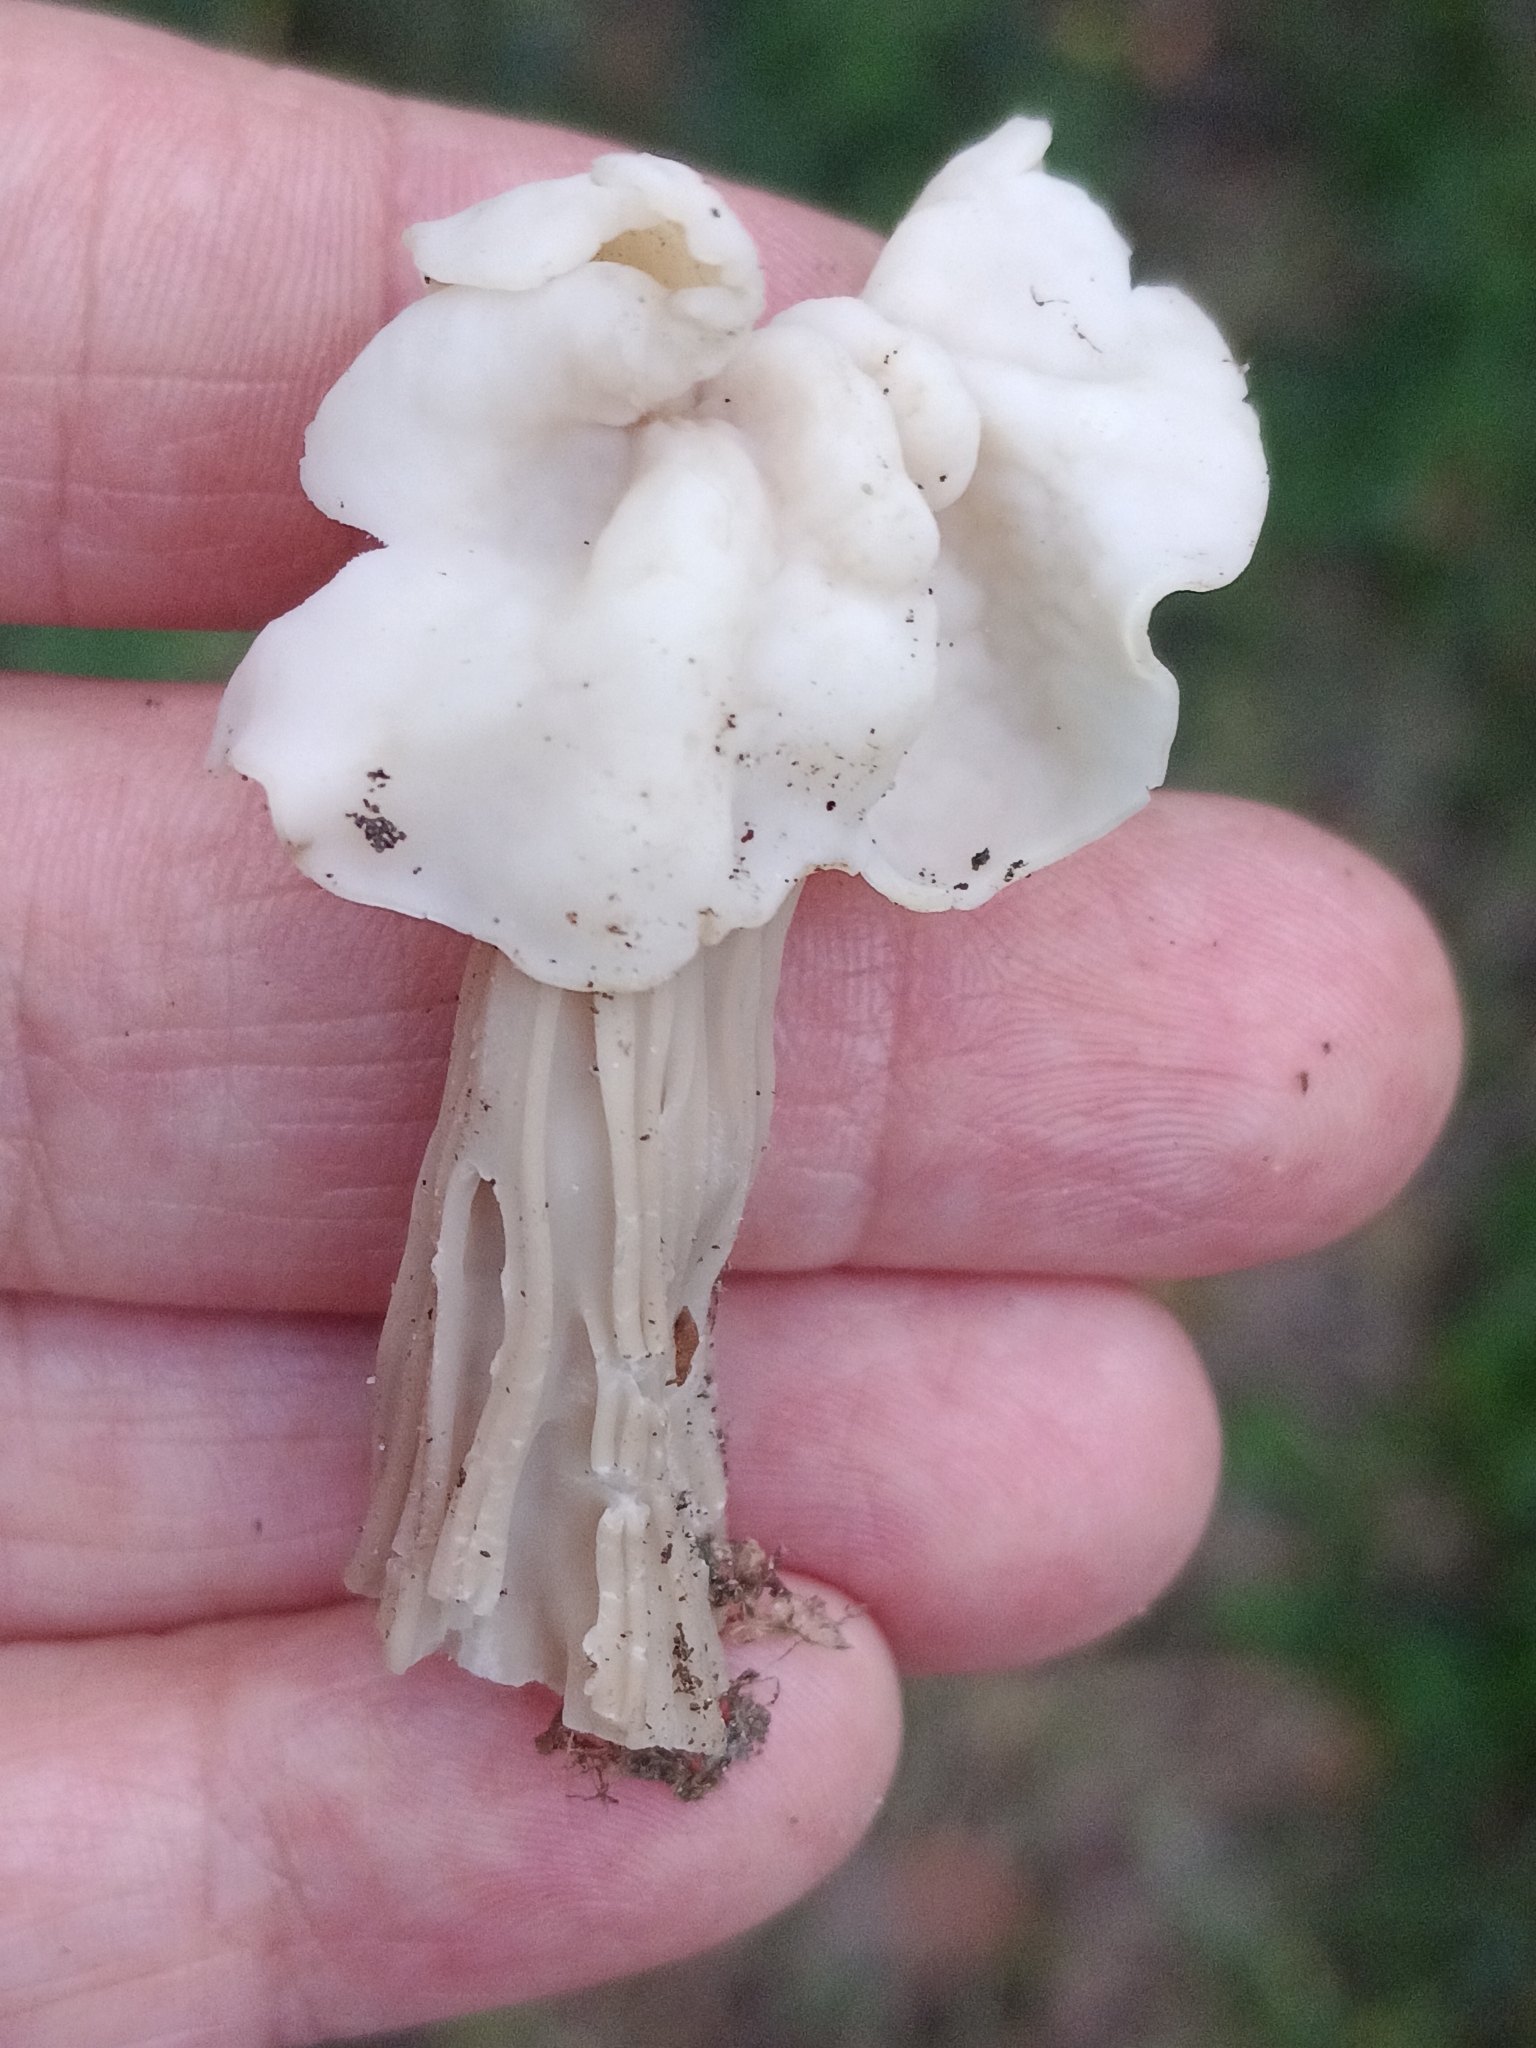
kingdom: Fungi
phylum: Ascomycota
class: Pezizomycetes
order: Pezizales
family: Helvellaceae
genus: Helvella
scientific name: Helvella crispa
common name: White saddle
